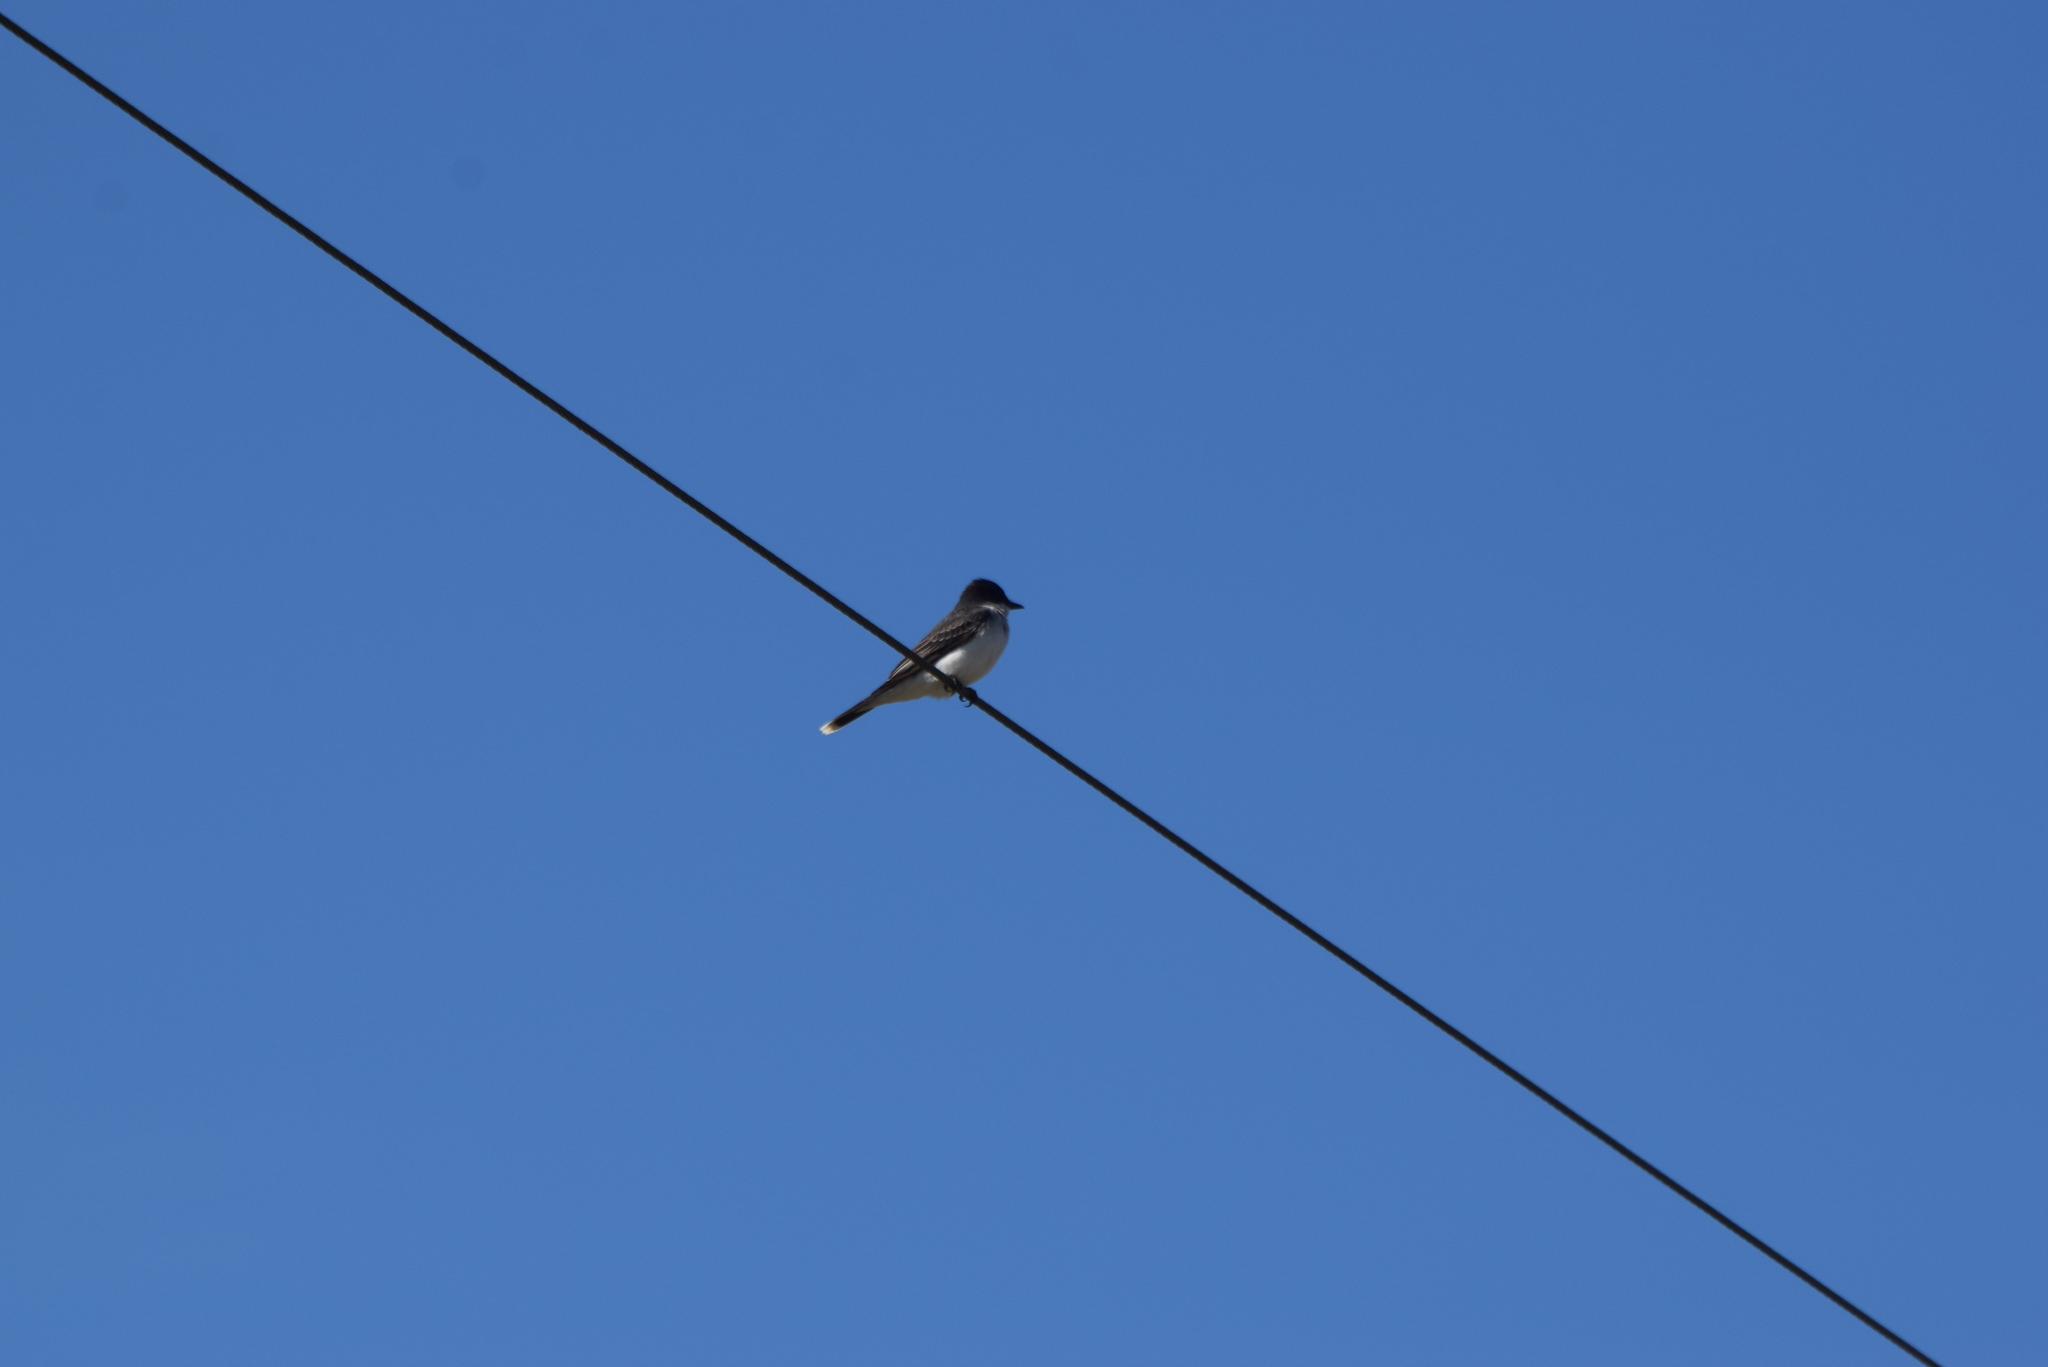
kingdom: Animalia
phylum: Chordata
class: Aves
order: Passeriformes
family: Tyrannidae
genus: Tyrannus
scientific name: Tyrannus tyrannus
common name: Eastern kingbird
